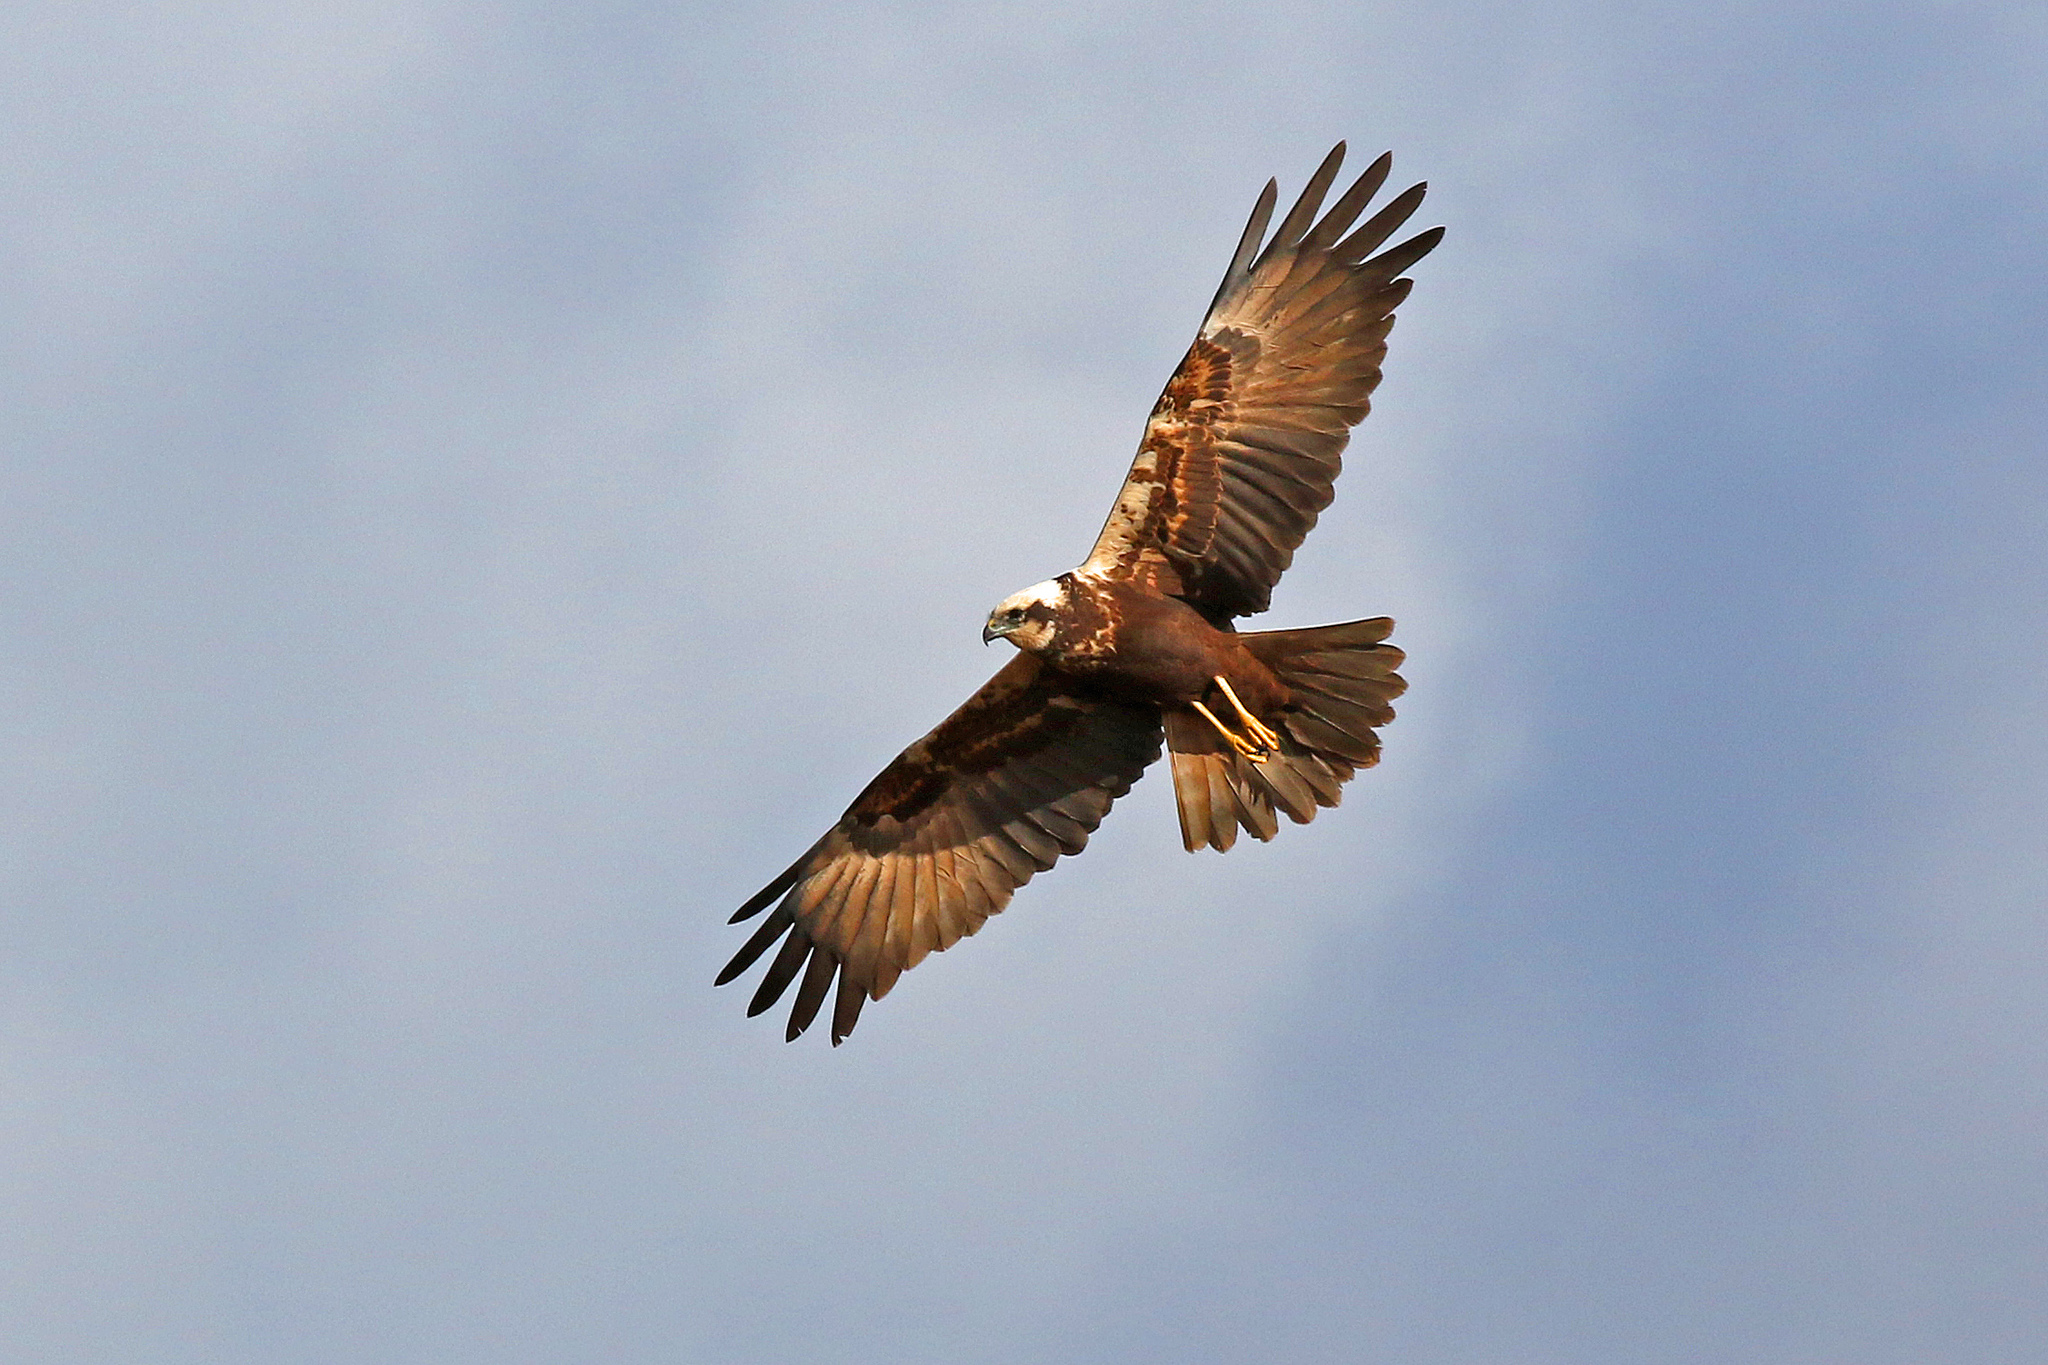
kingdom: Animalia
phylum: Chordata
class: Aves
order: Accipitriformes
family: Accipitridae
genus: Circus
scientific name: Circus aeruginosus
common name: Western marsh harrier
